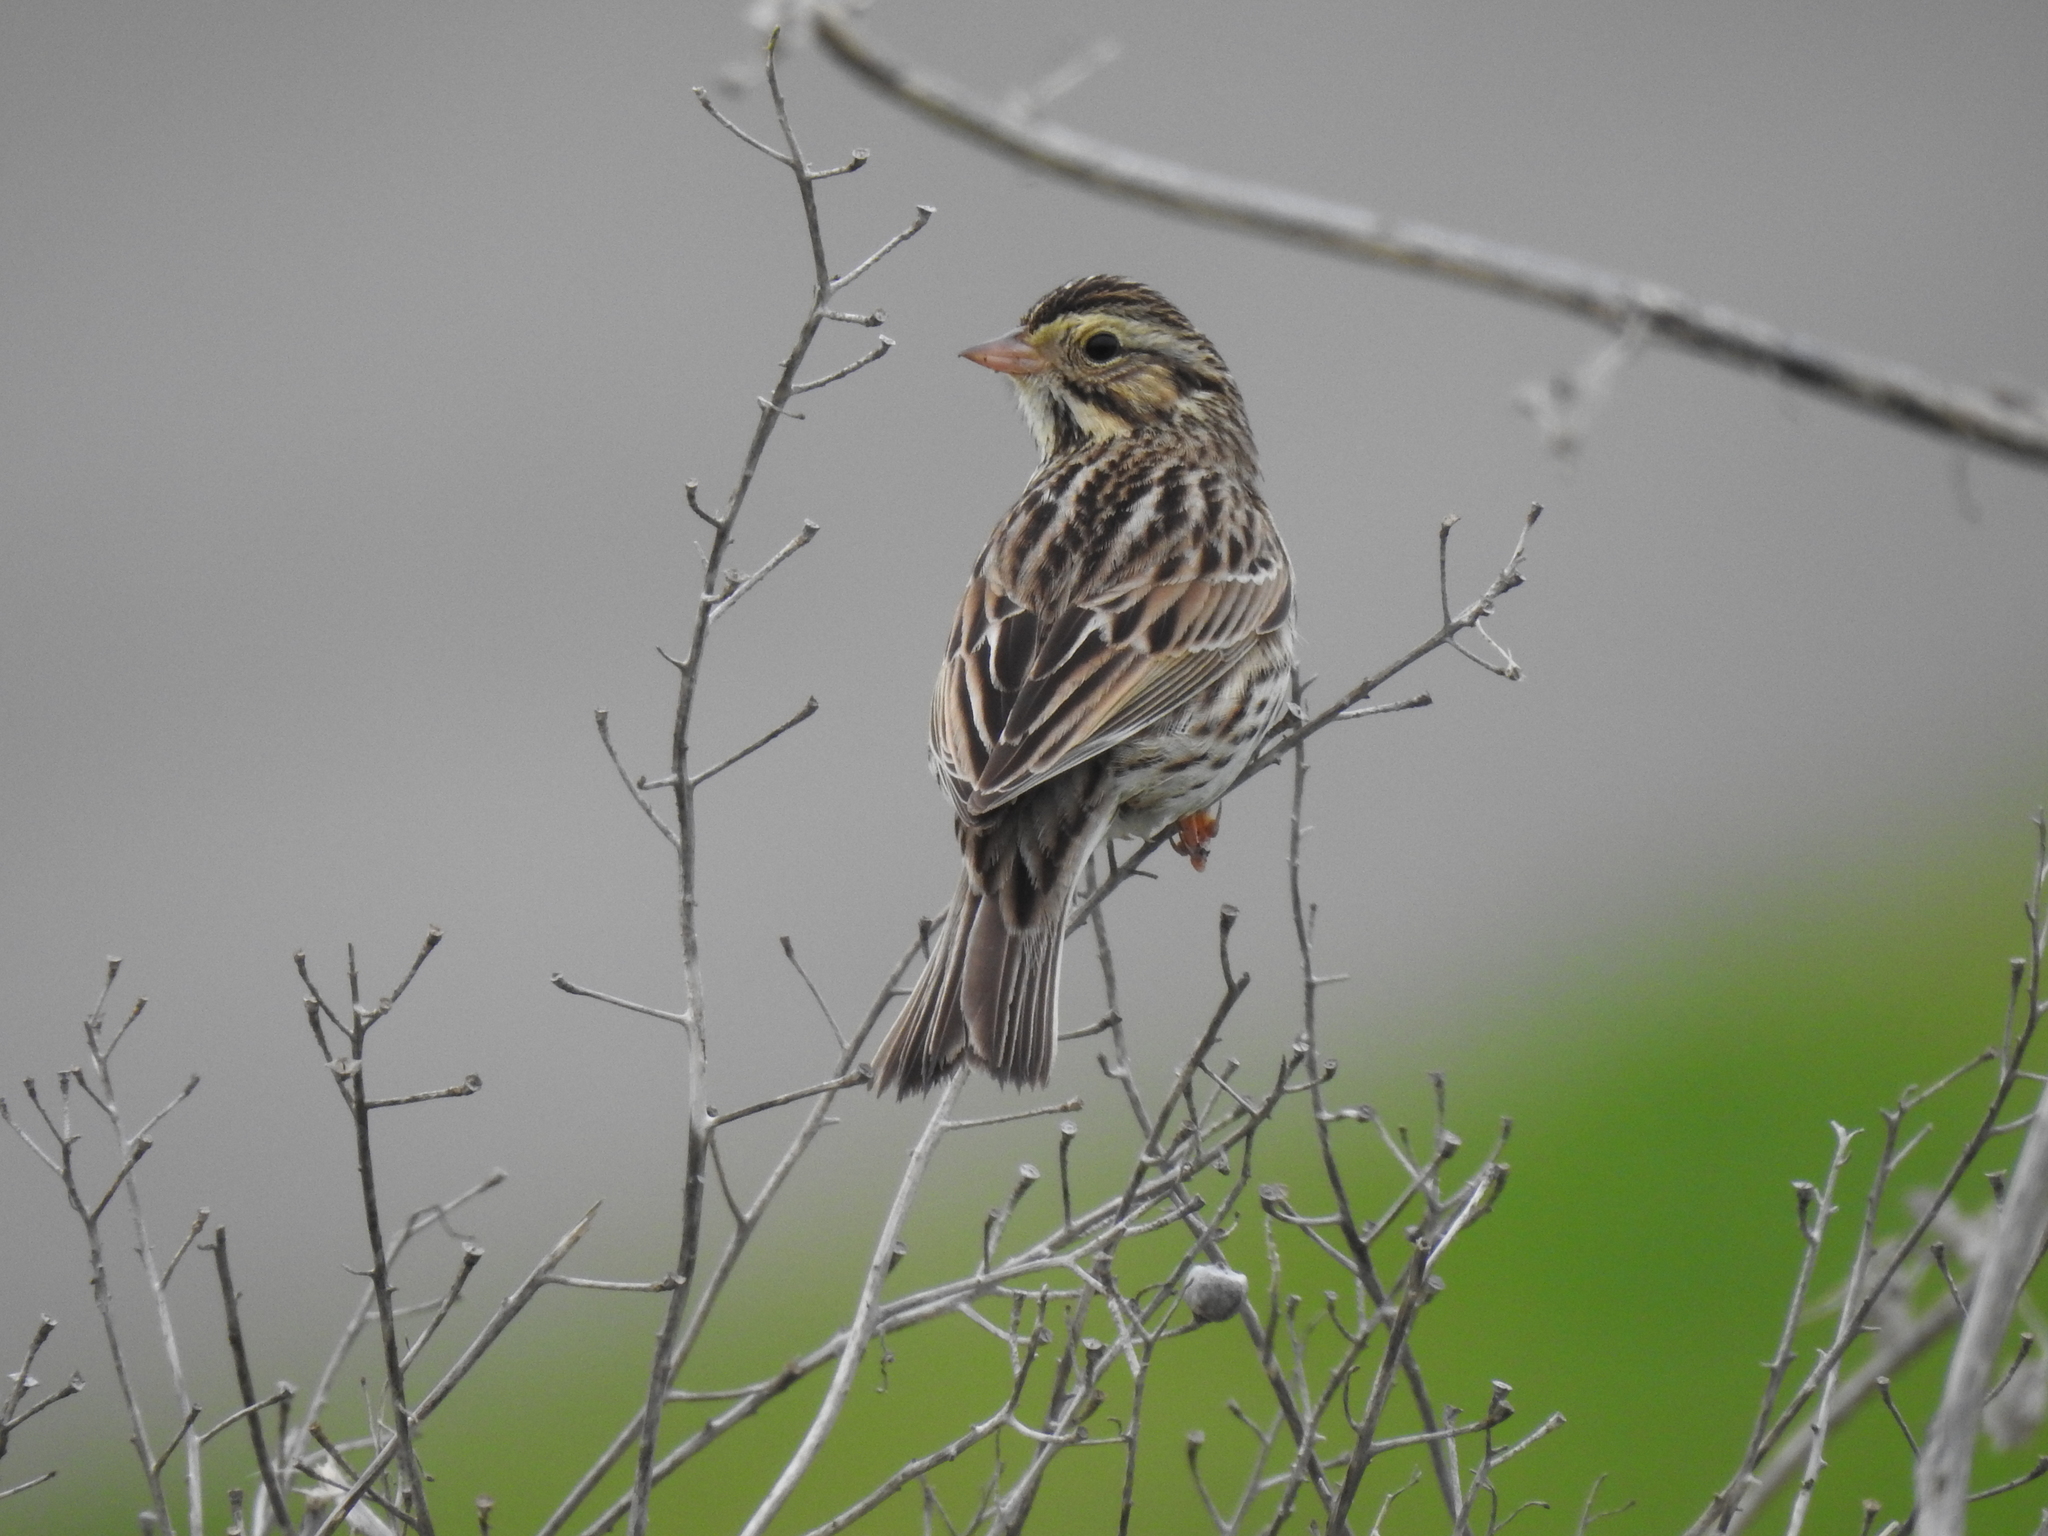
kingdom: Animalia
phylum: Chordata
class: Aves
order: Passeriformes
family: Passerellidae
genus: Passerculus
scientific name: Passerculus sandwichensis
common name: Savannah sparrow
